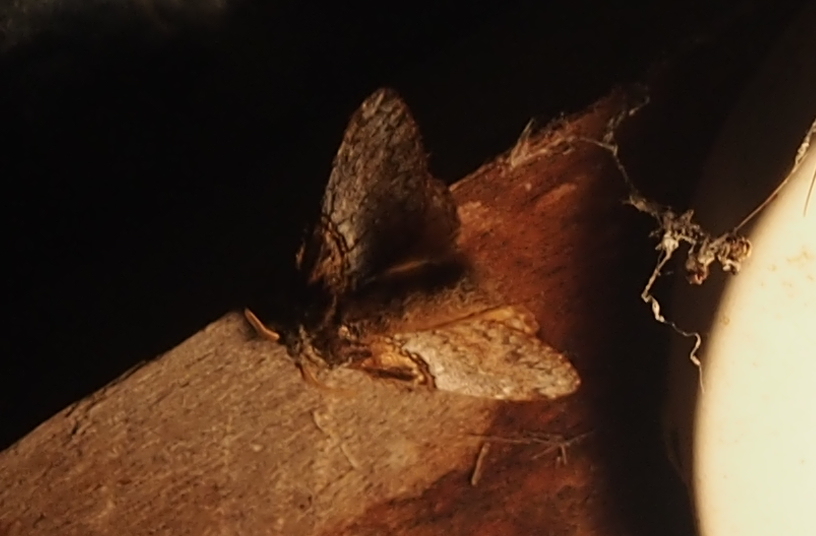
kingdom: Animalia
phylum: Arthropoda
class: Insecta
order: Lepidoptera
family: Lasiocampidae
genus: Euglyphis
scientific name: Euglyphis poasia
